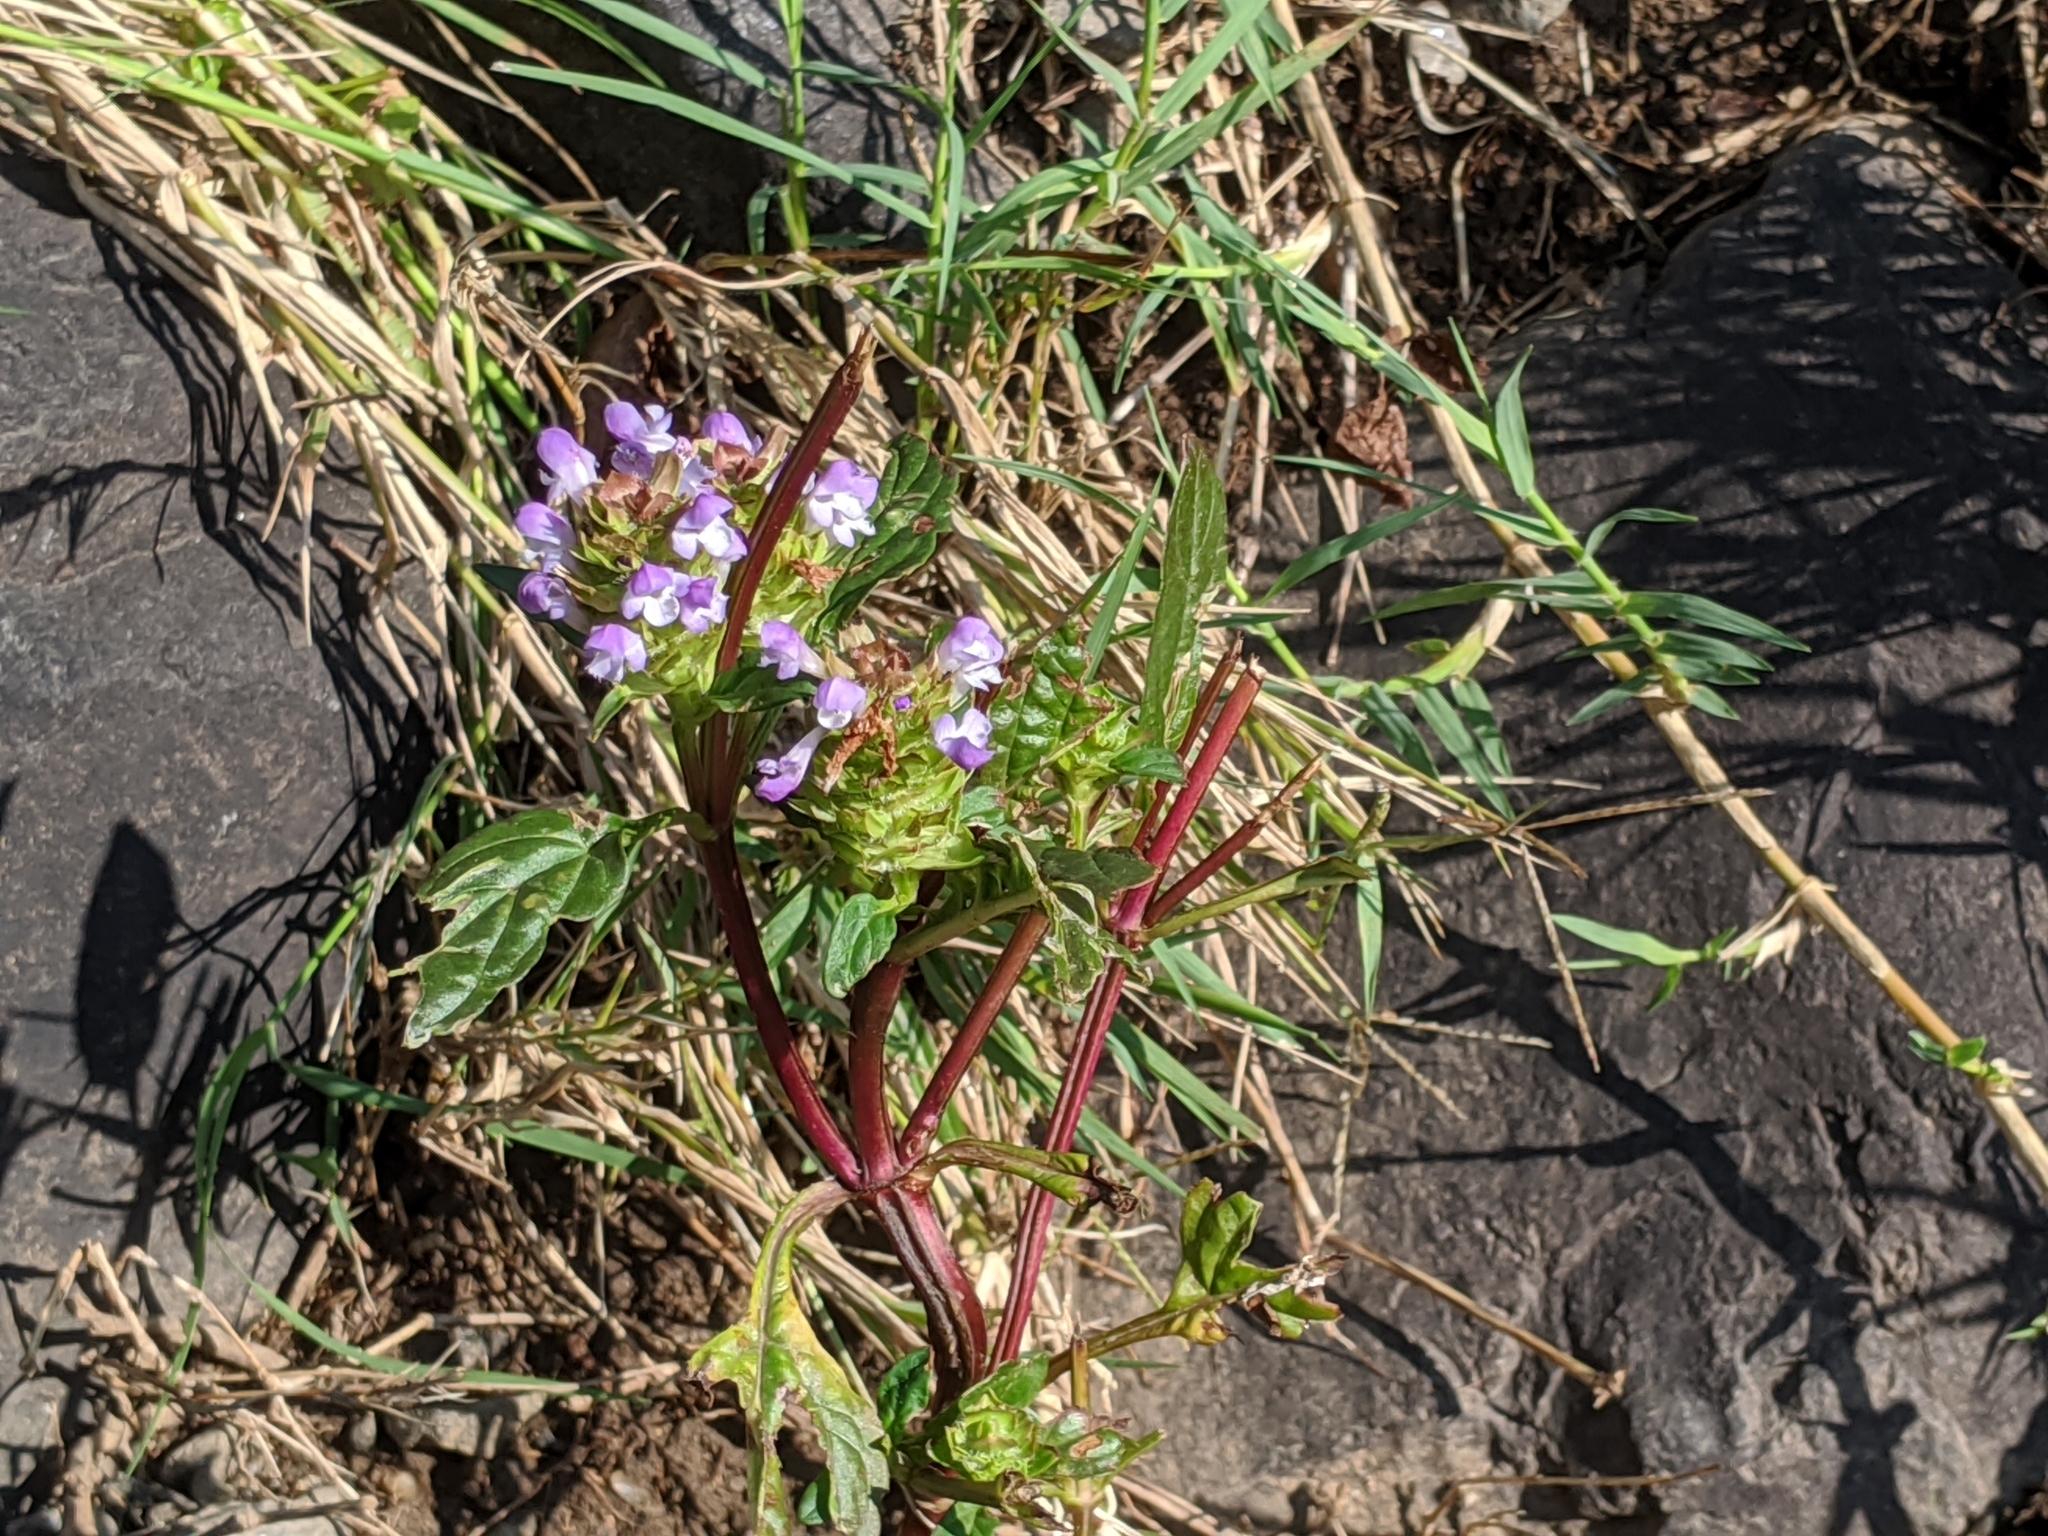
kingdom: Plantae
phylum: Tracheophyta
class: Magnoliopsida
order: Lamiales
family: Lamiaceae
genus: Prunella
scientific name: Prunella vulgaris
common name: Heal-all
